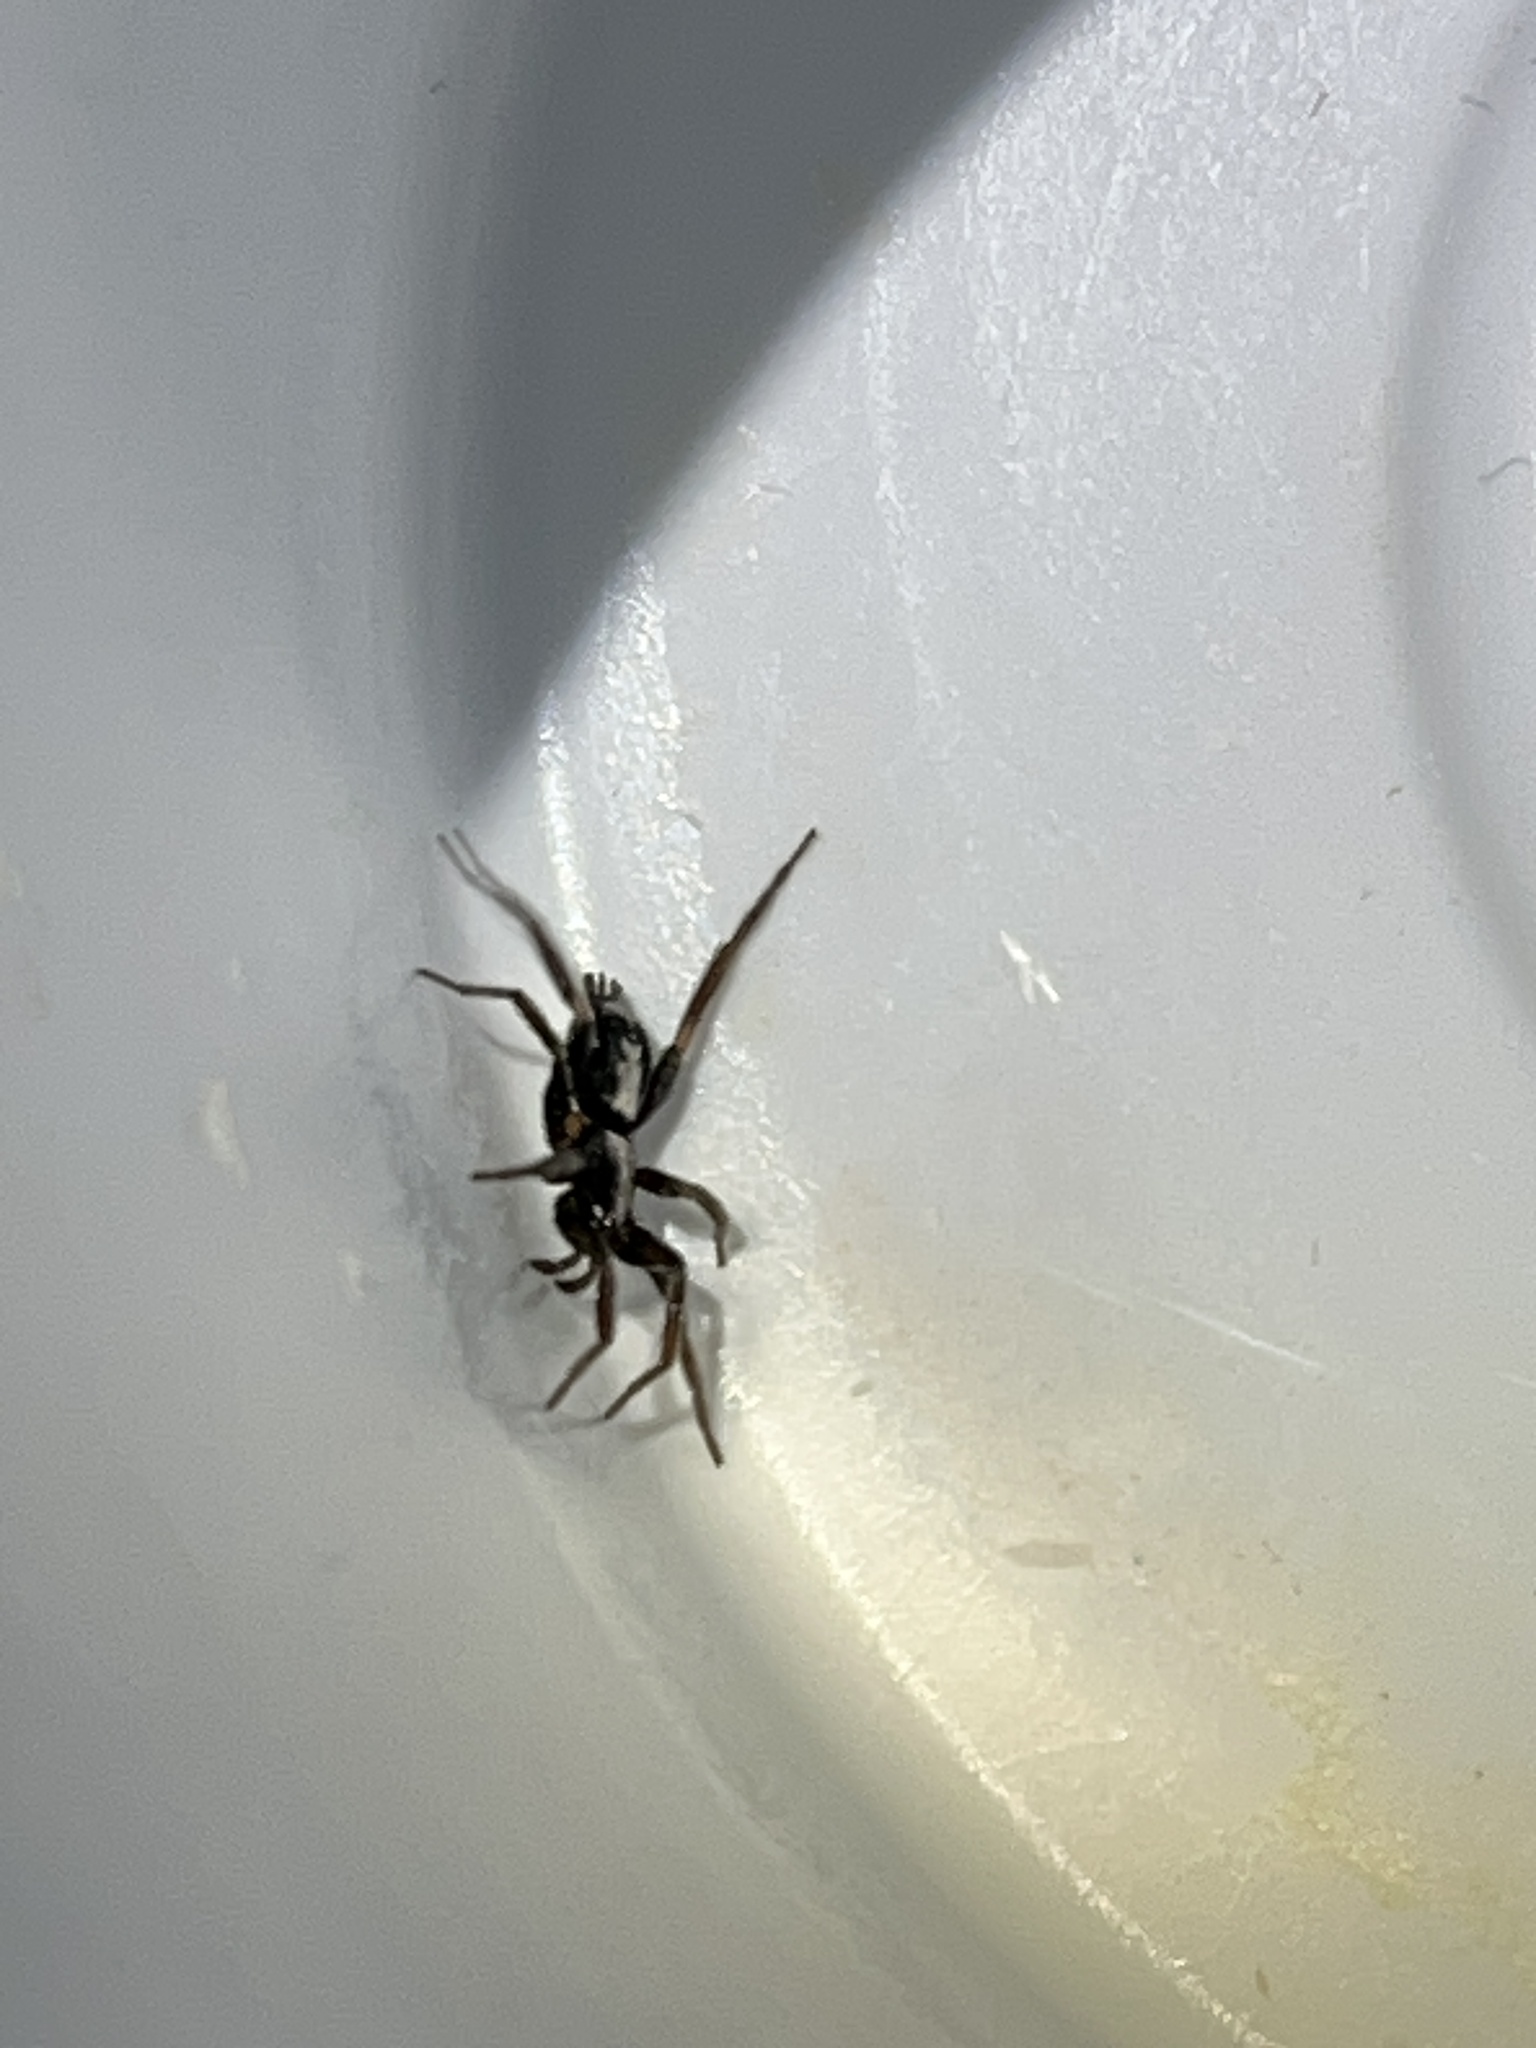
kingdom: Animalia
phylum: Arthropoda
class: Arachnida
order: Araneae
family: Gnaphosidae
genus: Herpyllus
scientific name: Herpyllus ecclesiasticus
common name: Eastern parson spider
